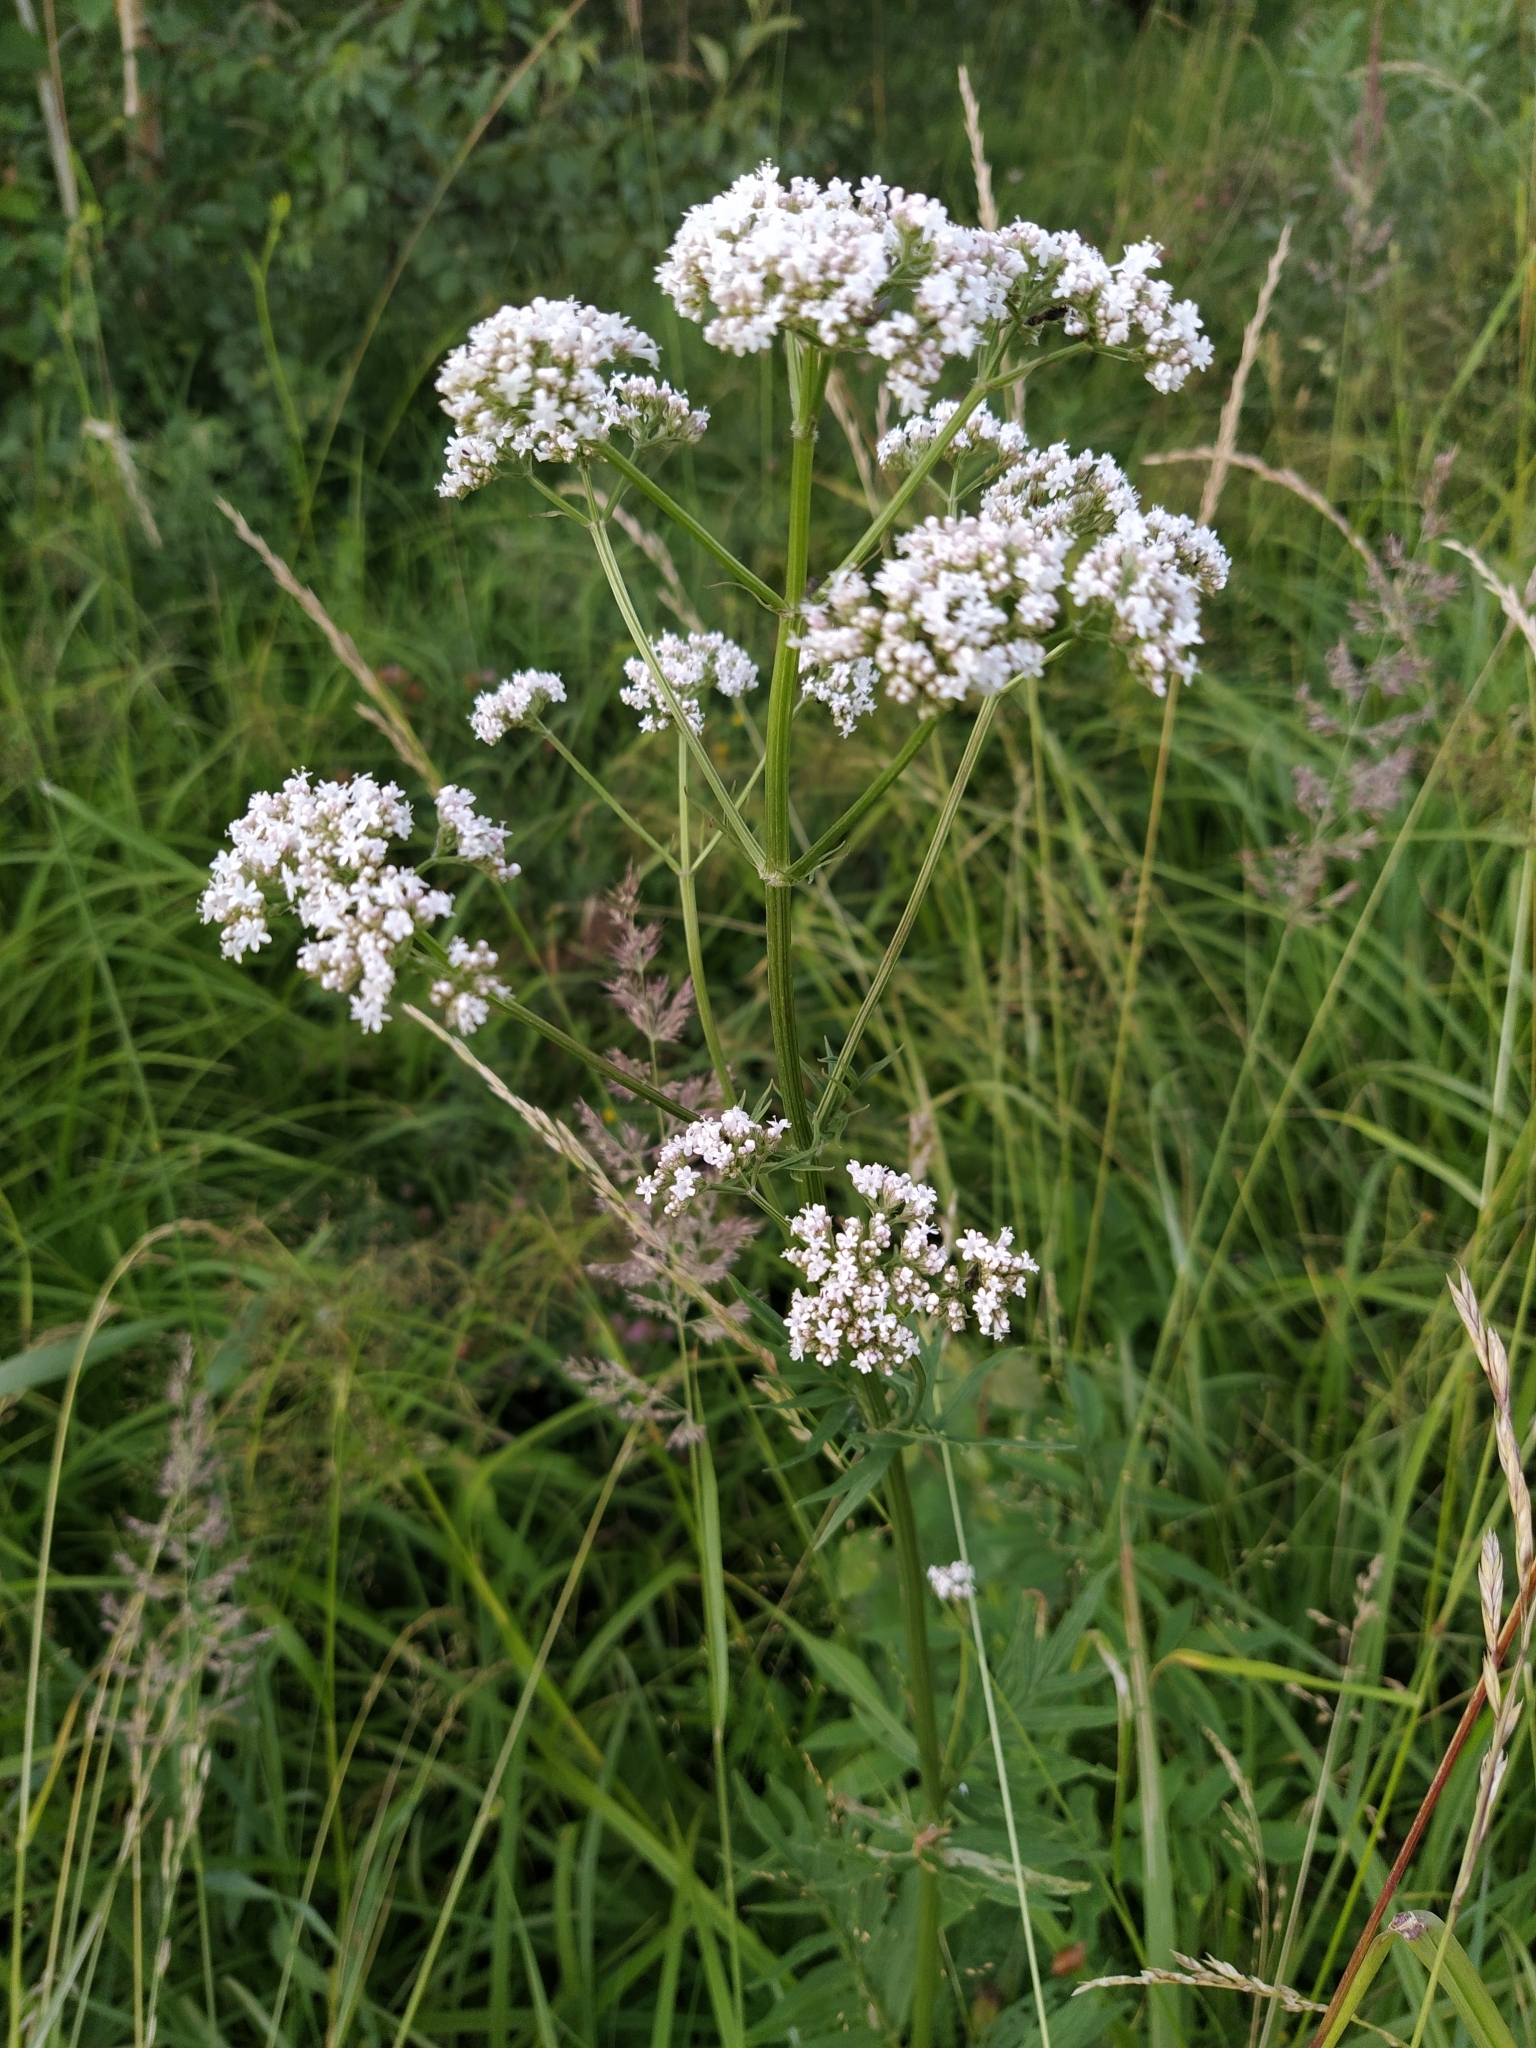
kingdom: Plantae
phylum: Tracheophyta
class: Magnoliopsida
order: Dipsacales
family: Caprifoliaceae
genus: Valeriana
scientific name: Valeriana officinalis
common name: Common valerian
